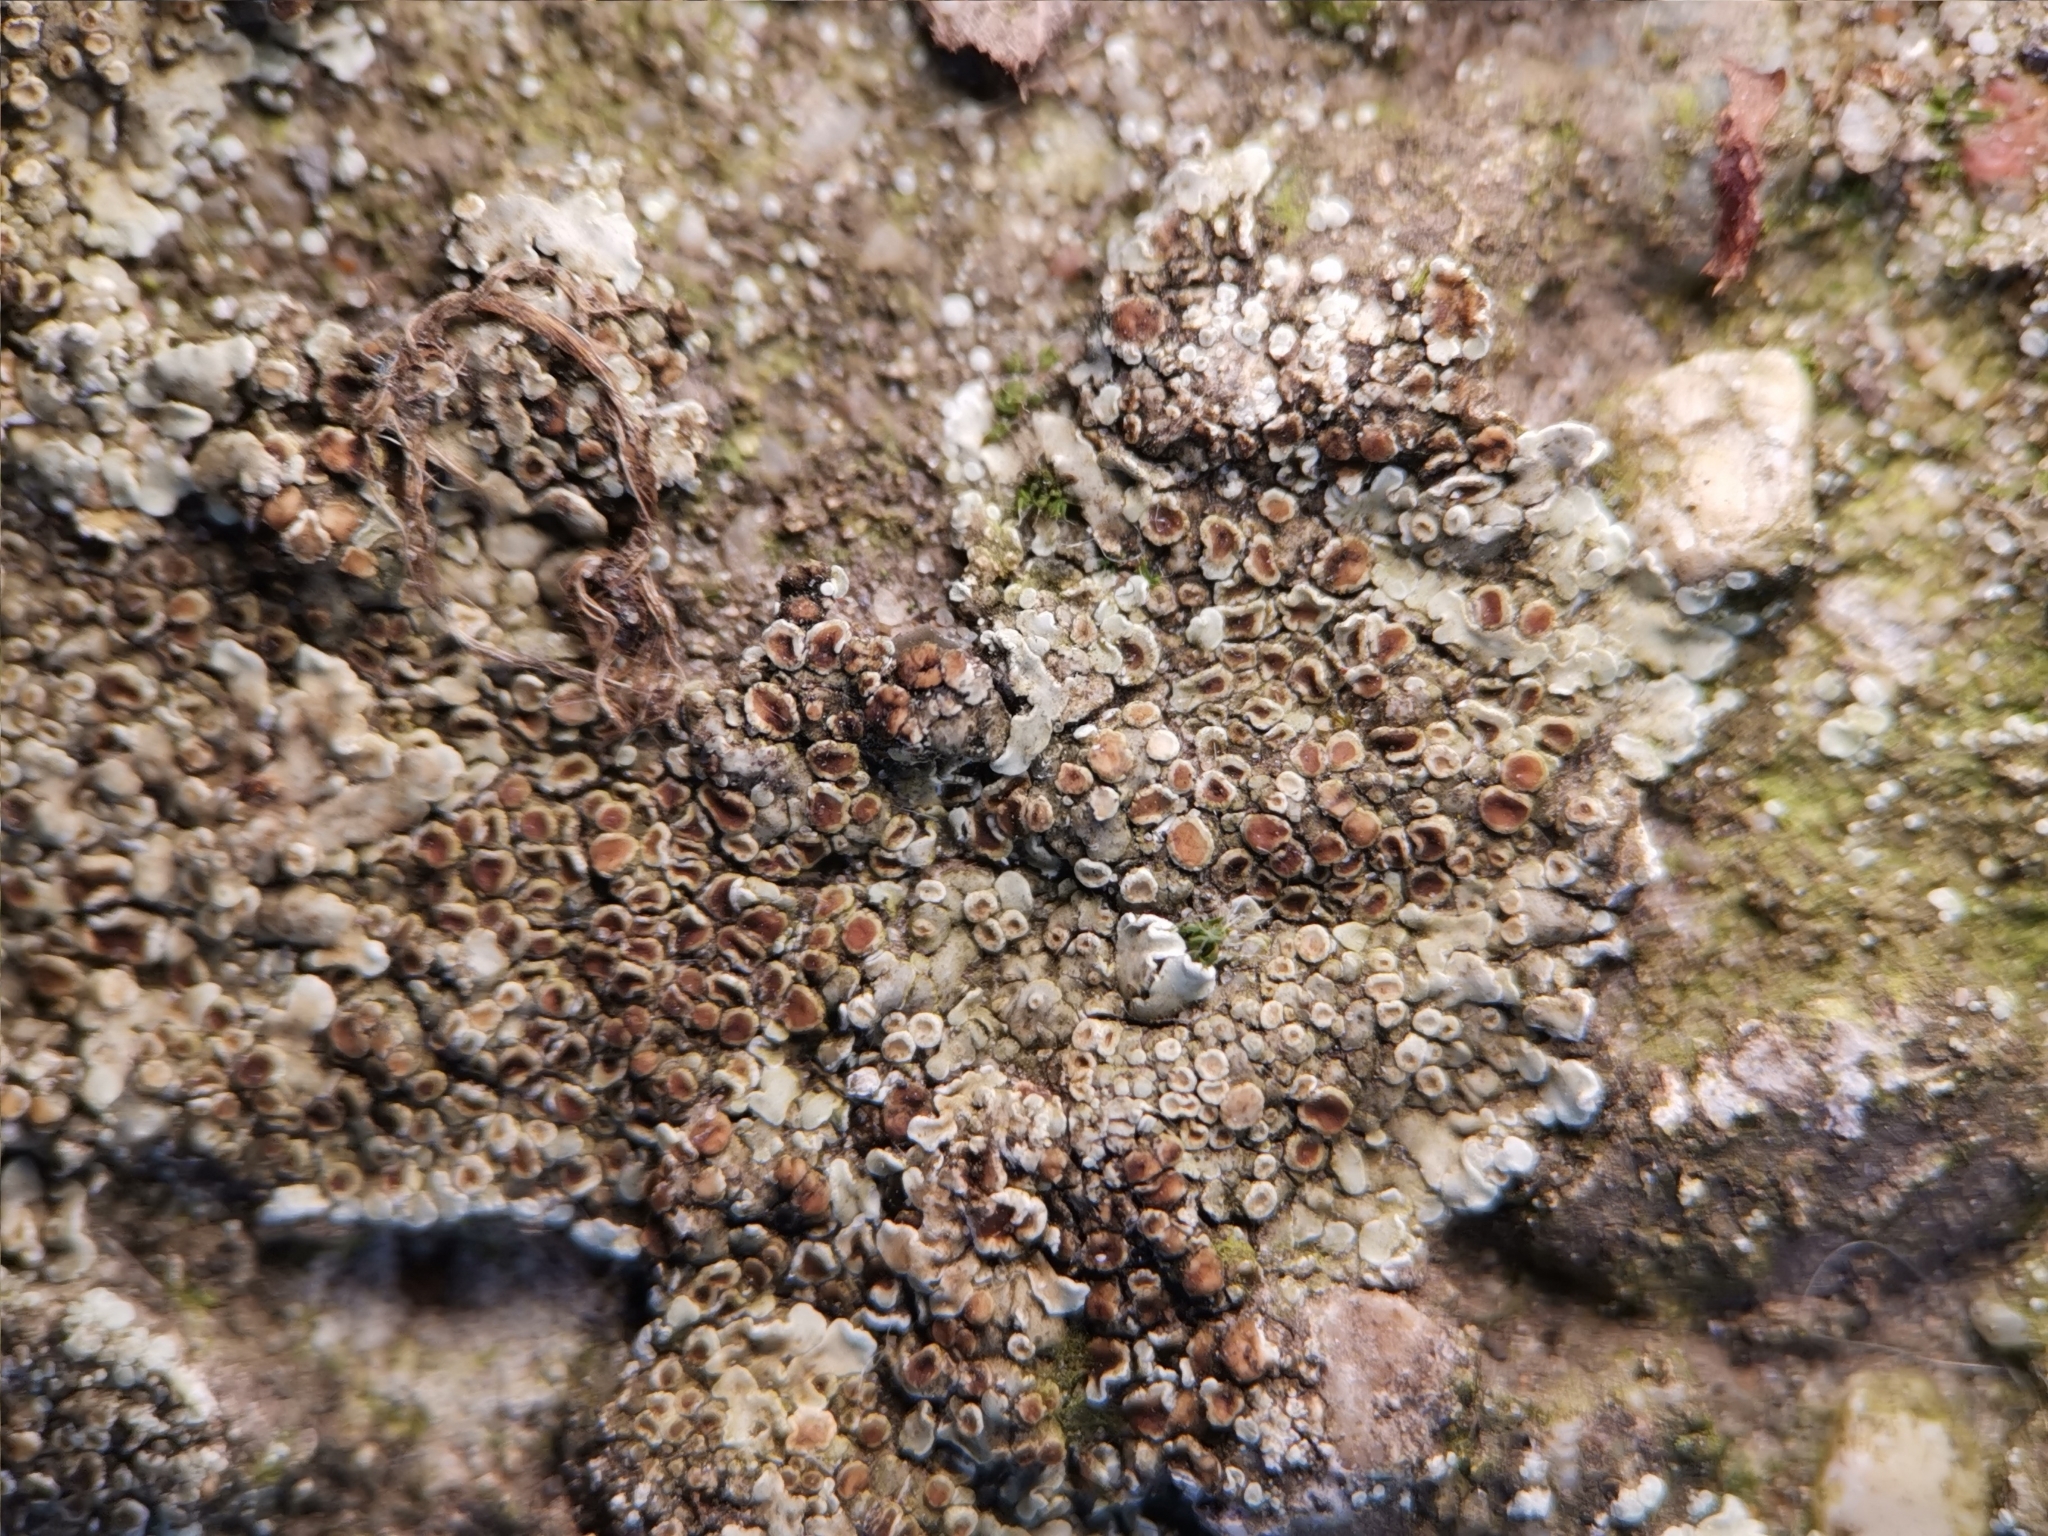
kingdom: Fungi
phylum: Ascomycota
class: Lecanoromycetes
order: Lecanorales
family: Lecanoraceae
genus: Protoparmeliopsis
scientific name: Protoparmeliopsis muralis
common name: Stonewall rim lichen
